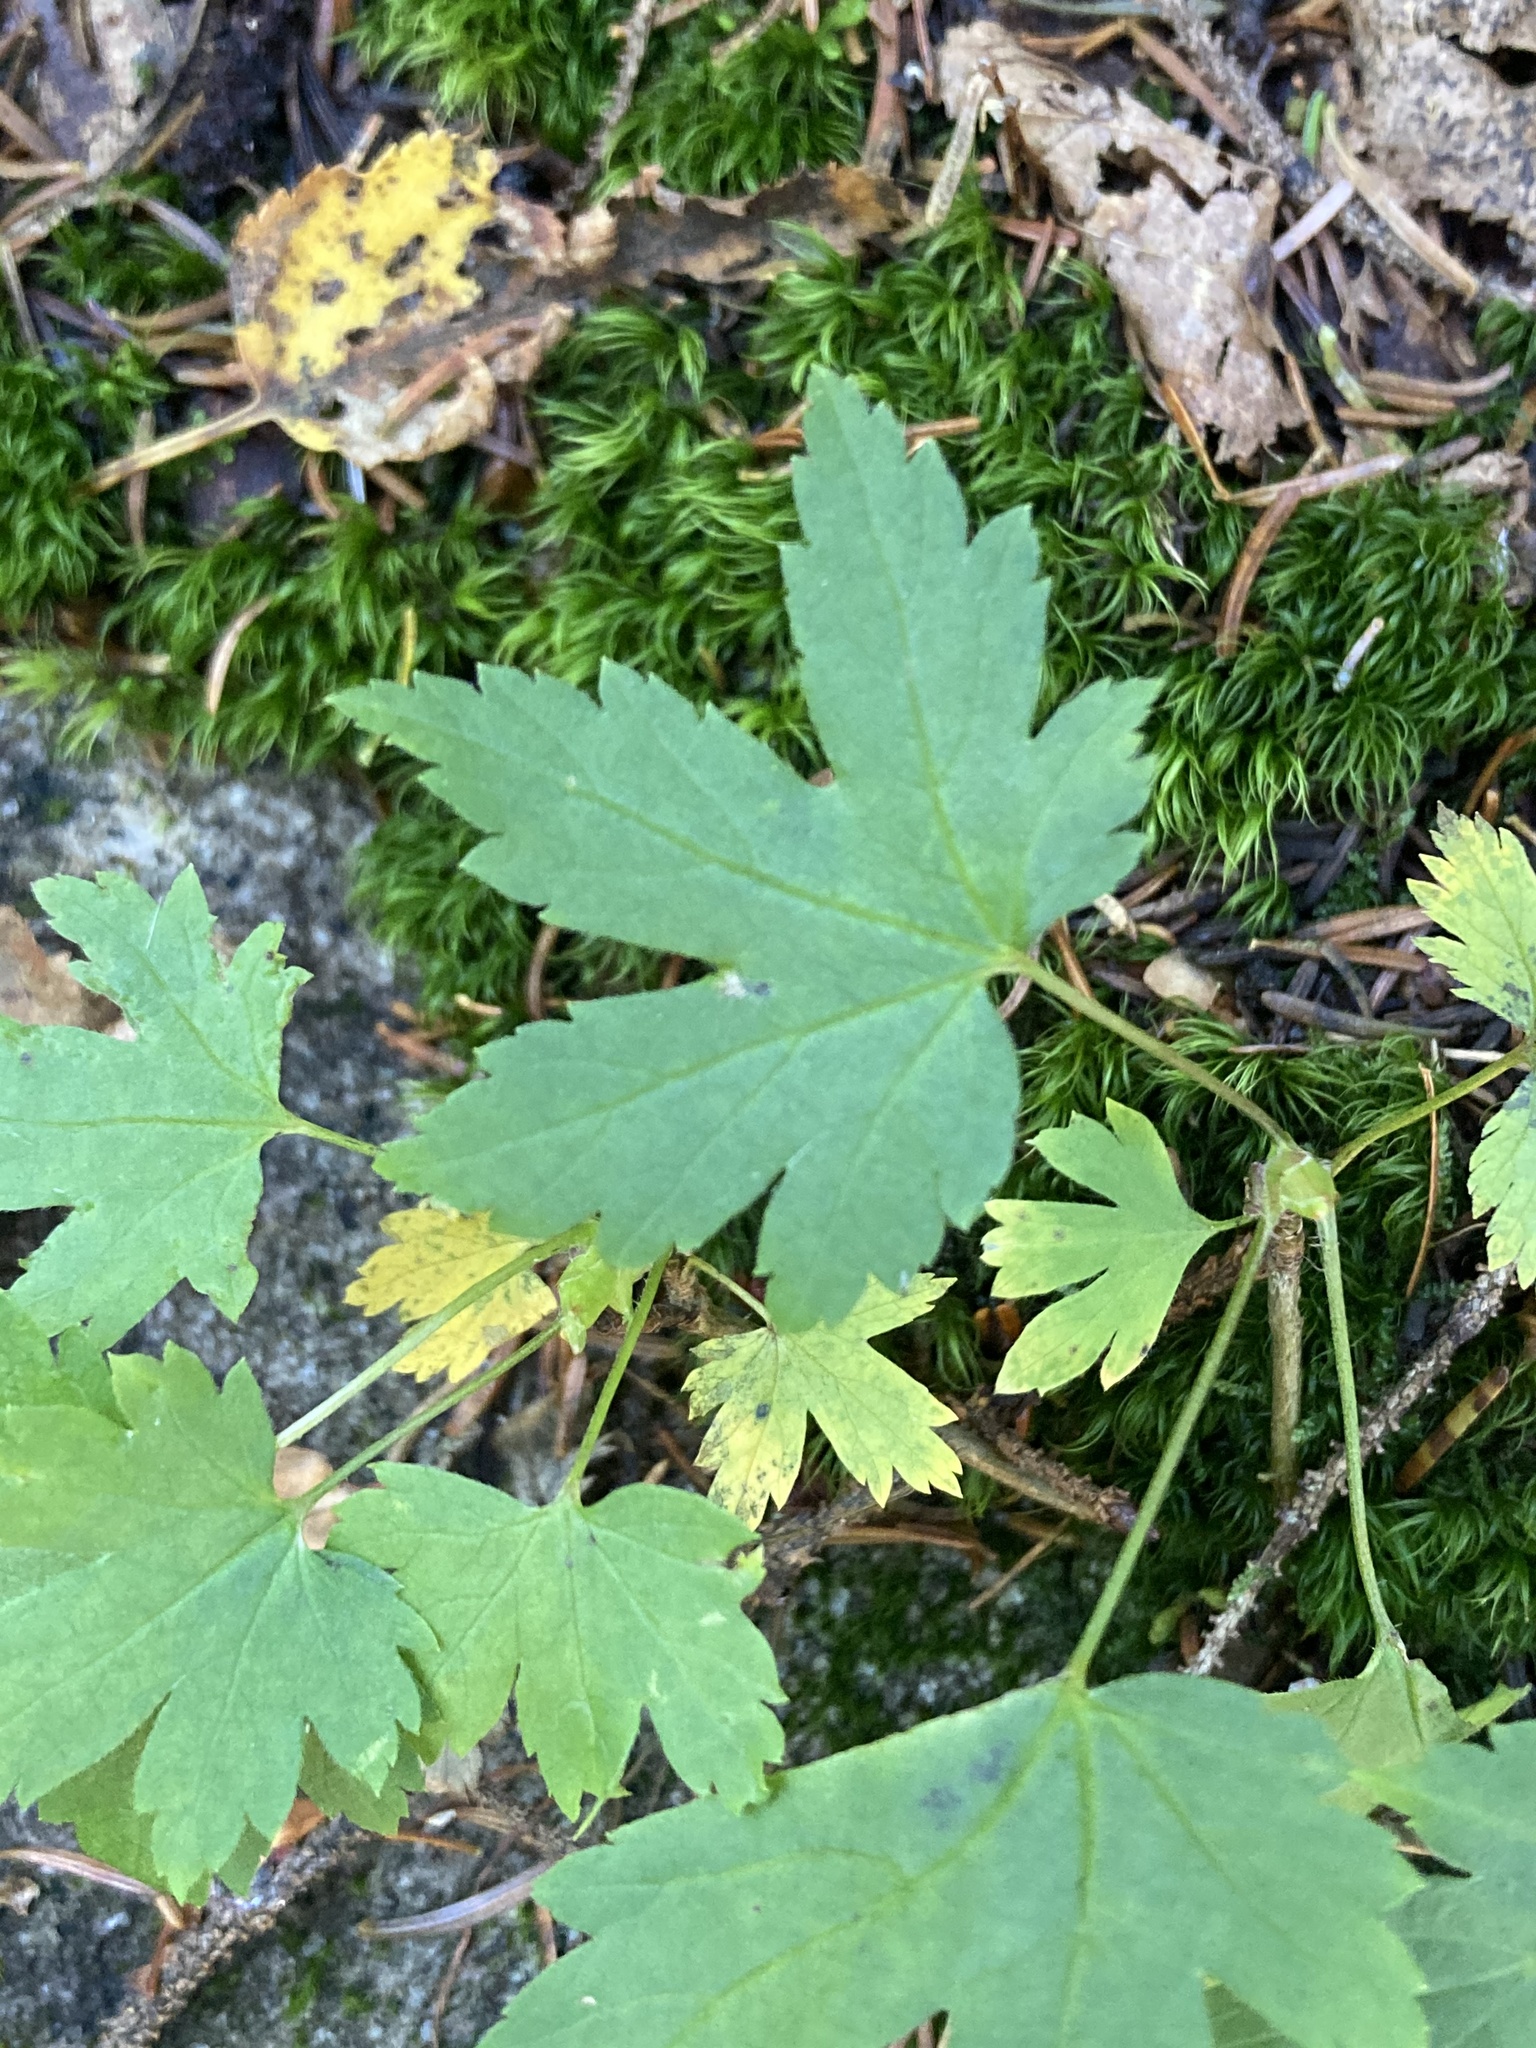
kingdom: Plantae
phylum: Tracheophyta
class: Magnoliopsida
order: Saxifragales
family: Grossulariaceae
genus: Ribes
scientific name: Ribes glandulosum
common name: Skunk currant
